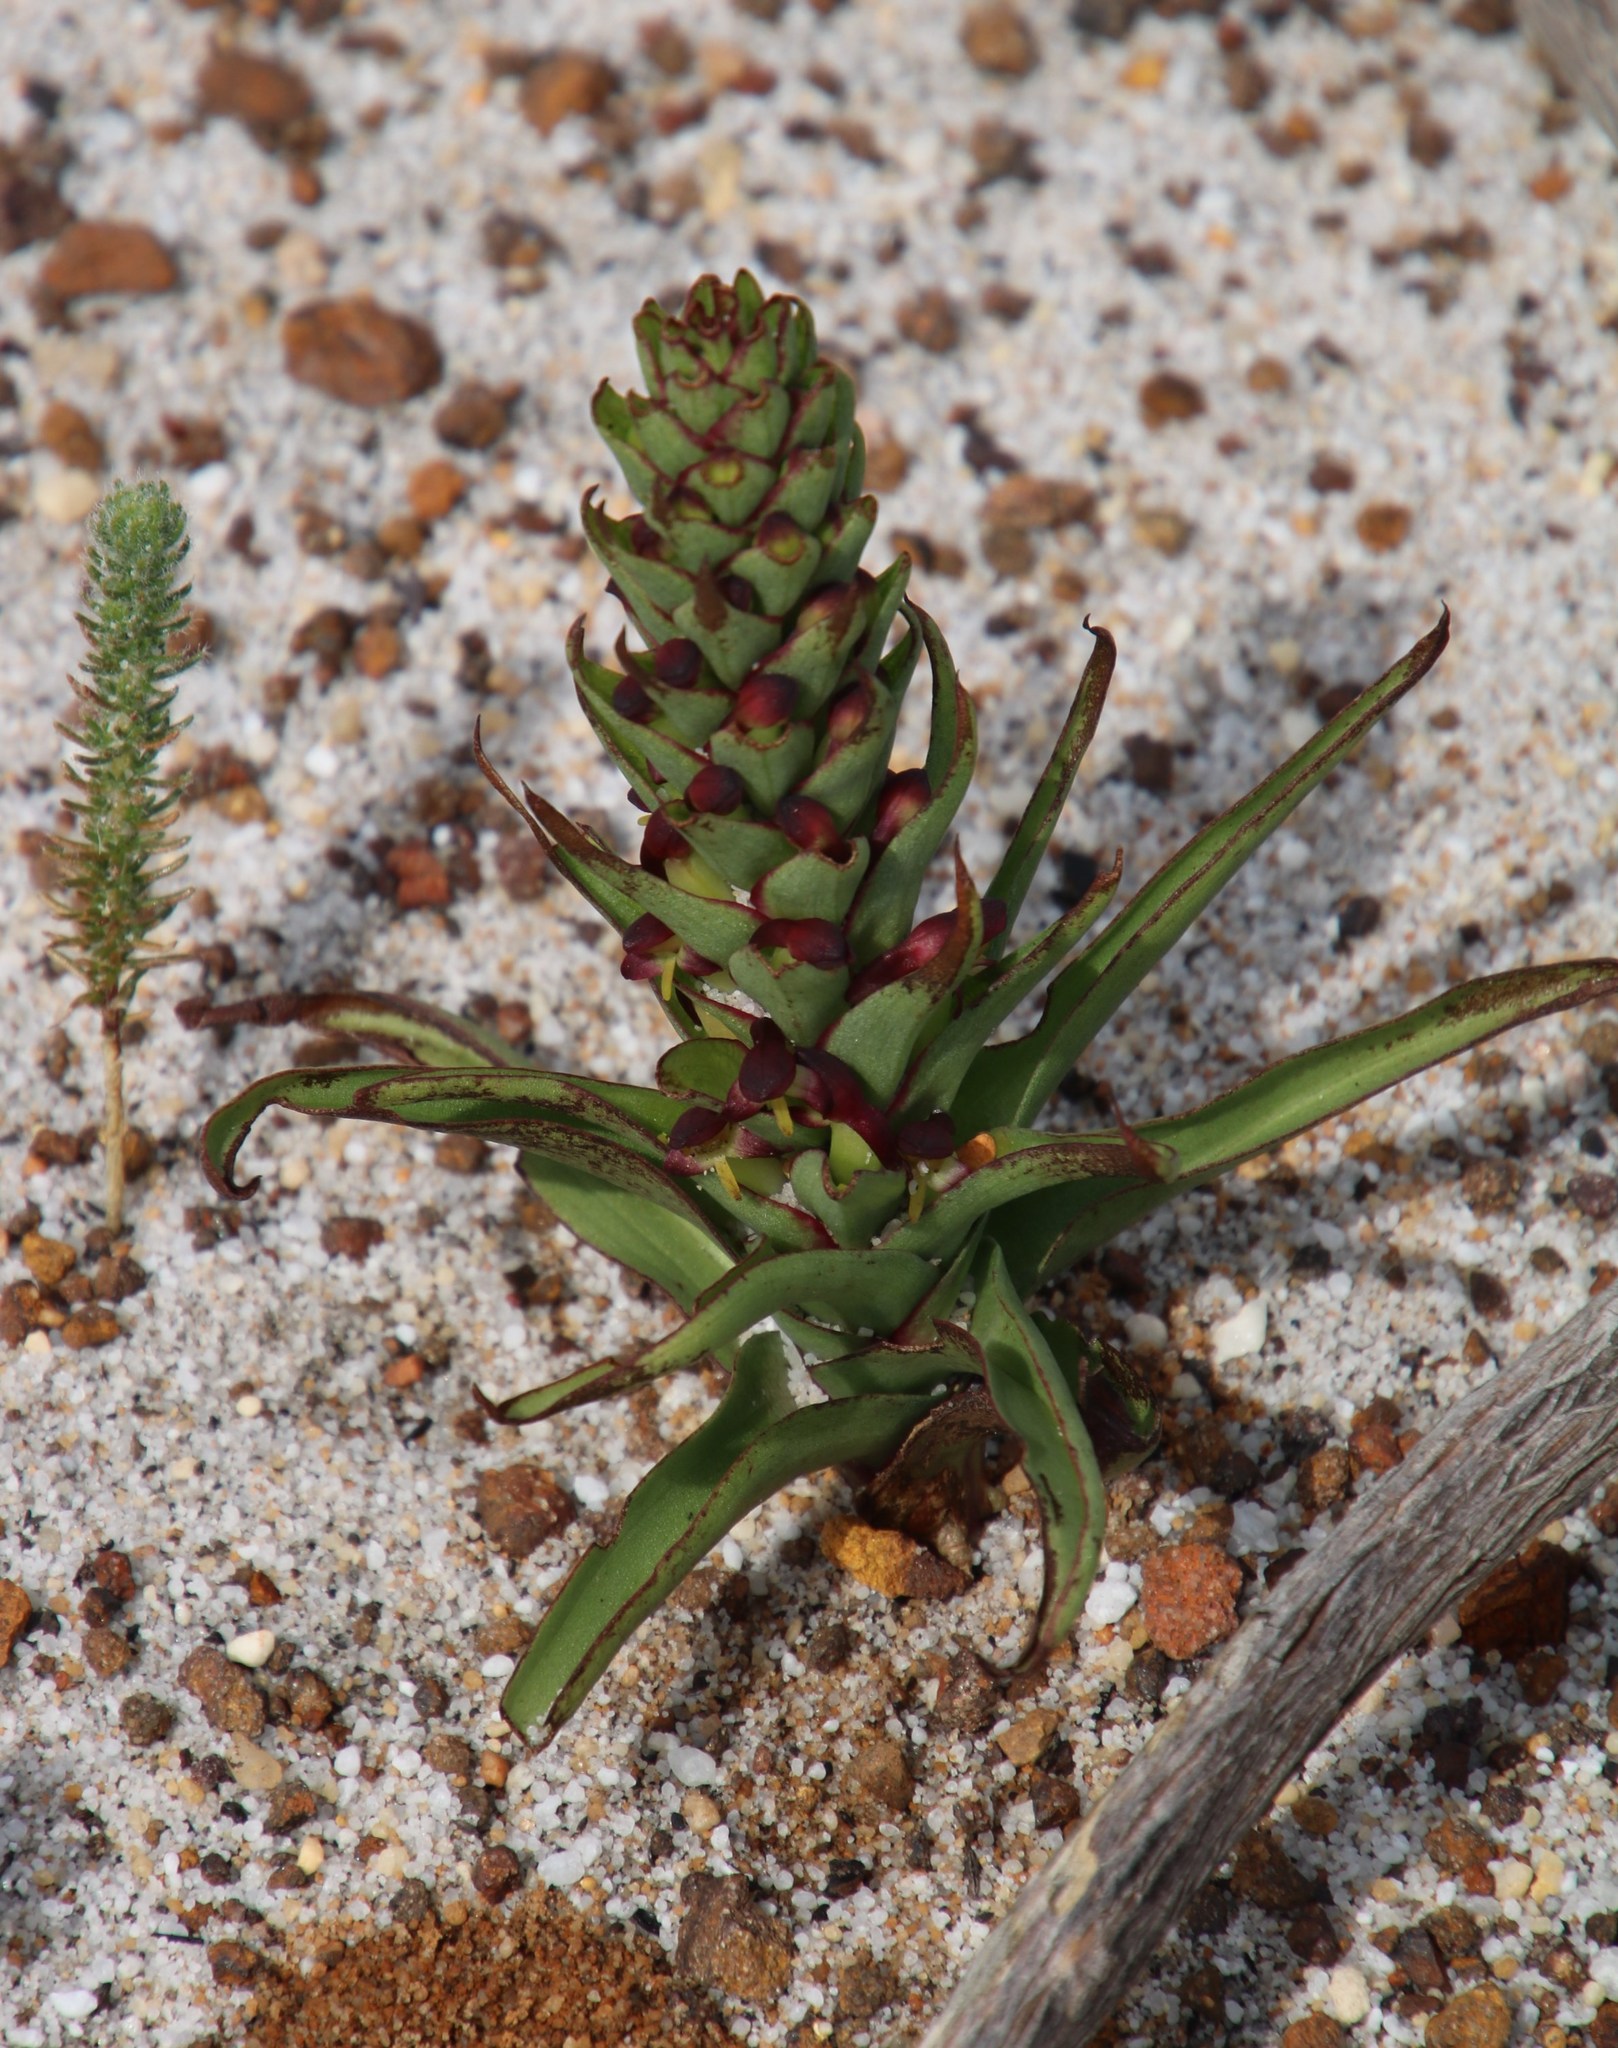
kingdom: Plantae
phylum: Tracheophyta
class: Liliopsida
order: Asparagales
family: Orchidaceae
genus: Disa
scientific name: Disa bracteata
